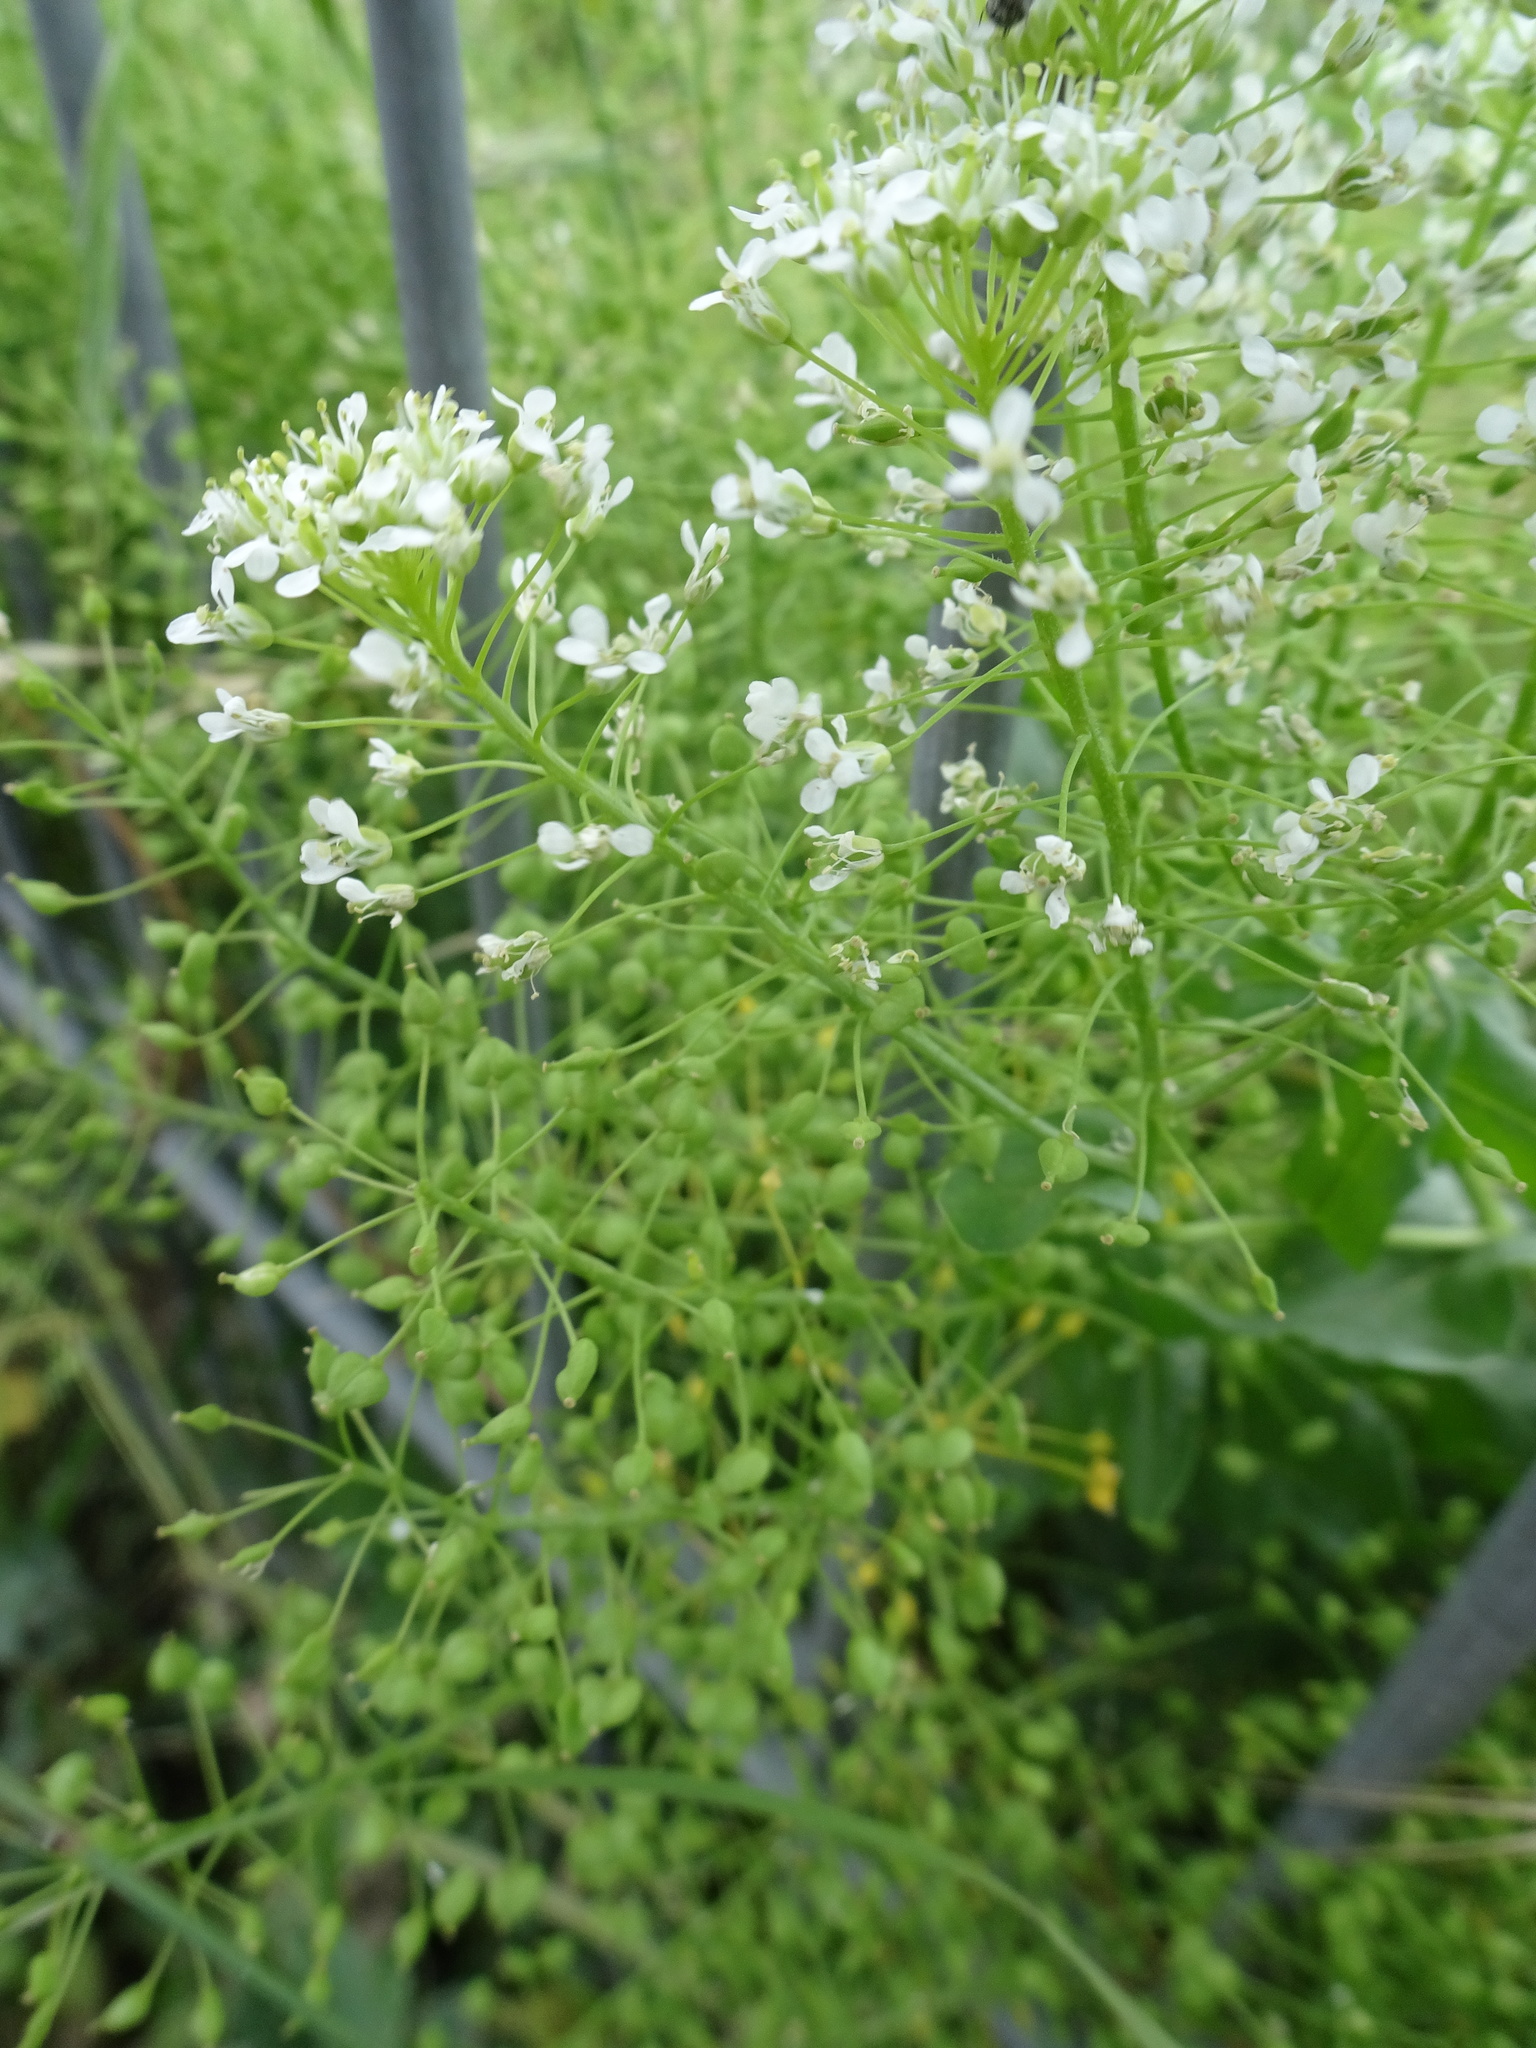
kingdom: Plantae
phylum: Tracheophyta
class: Magnoliopsida
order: Brassicales
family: Brassicaceae
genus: Lepidium
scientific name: Lepidium draba
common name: Hoary cress
